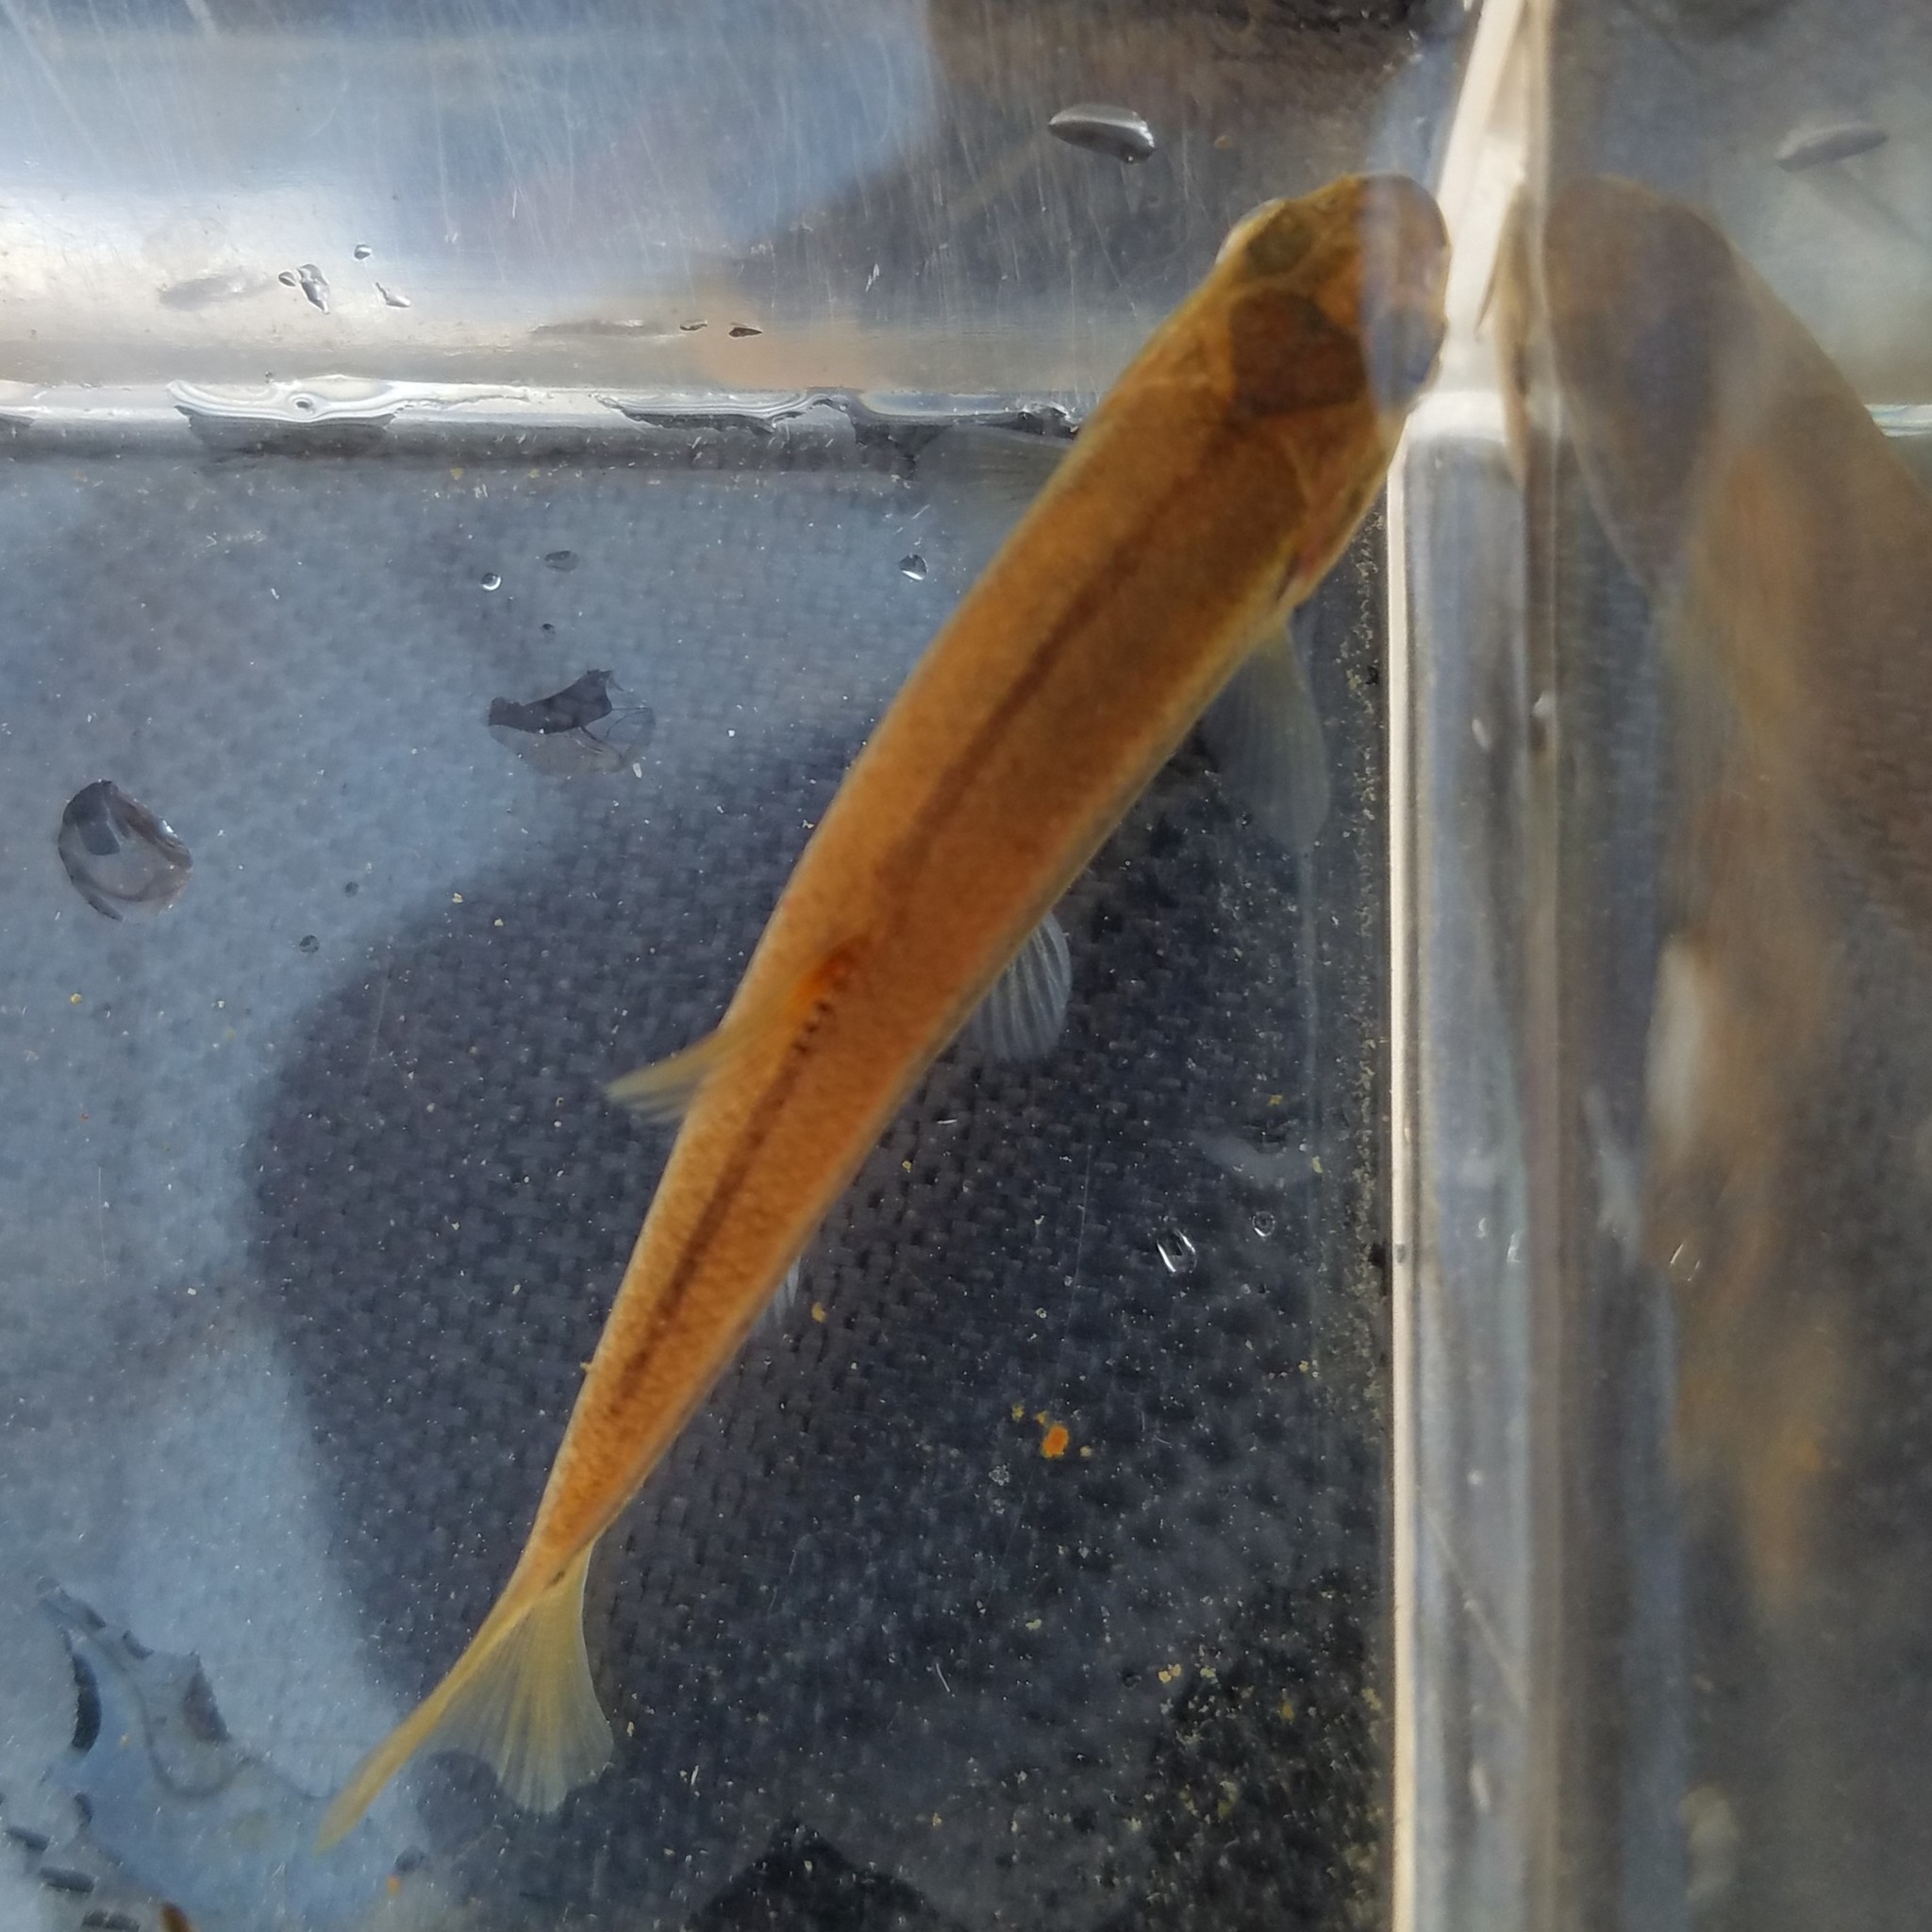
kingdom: Animalia
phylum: Chordata
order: Cypriniformes
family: Cyprinidae
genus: Semotilus
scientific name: Semotilus atromaculatus
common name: Creek chub
